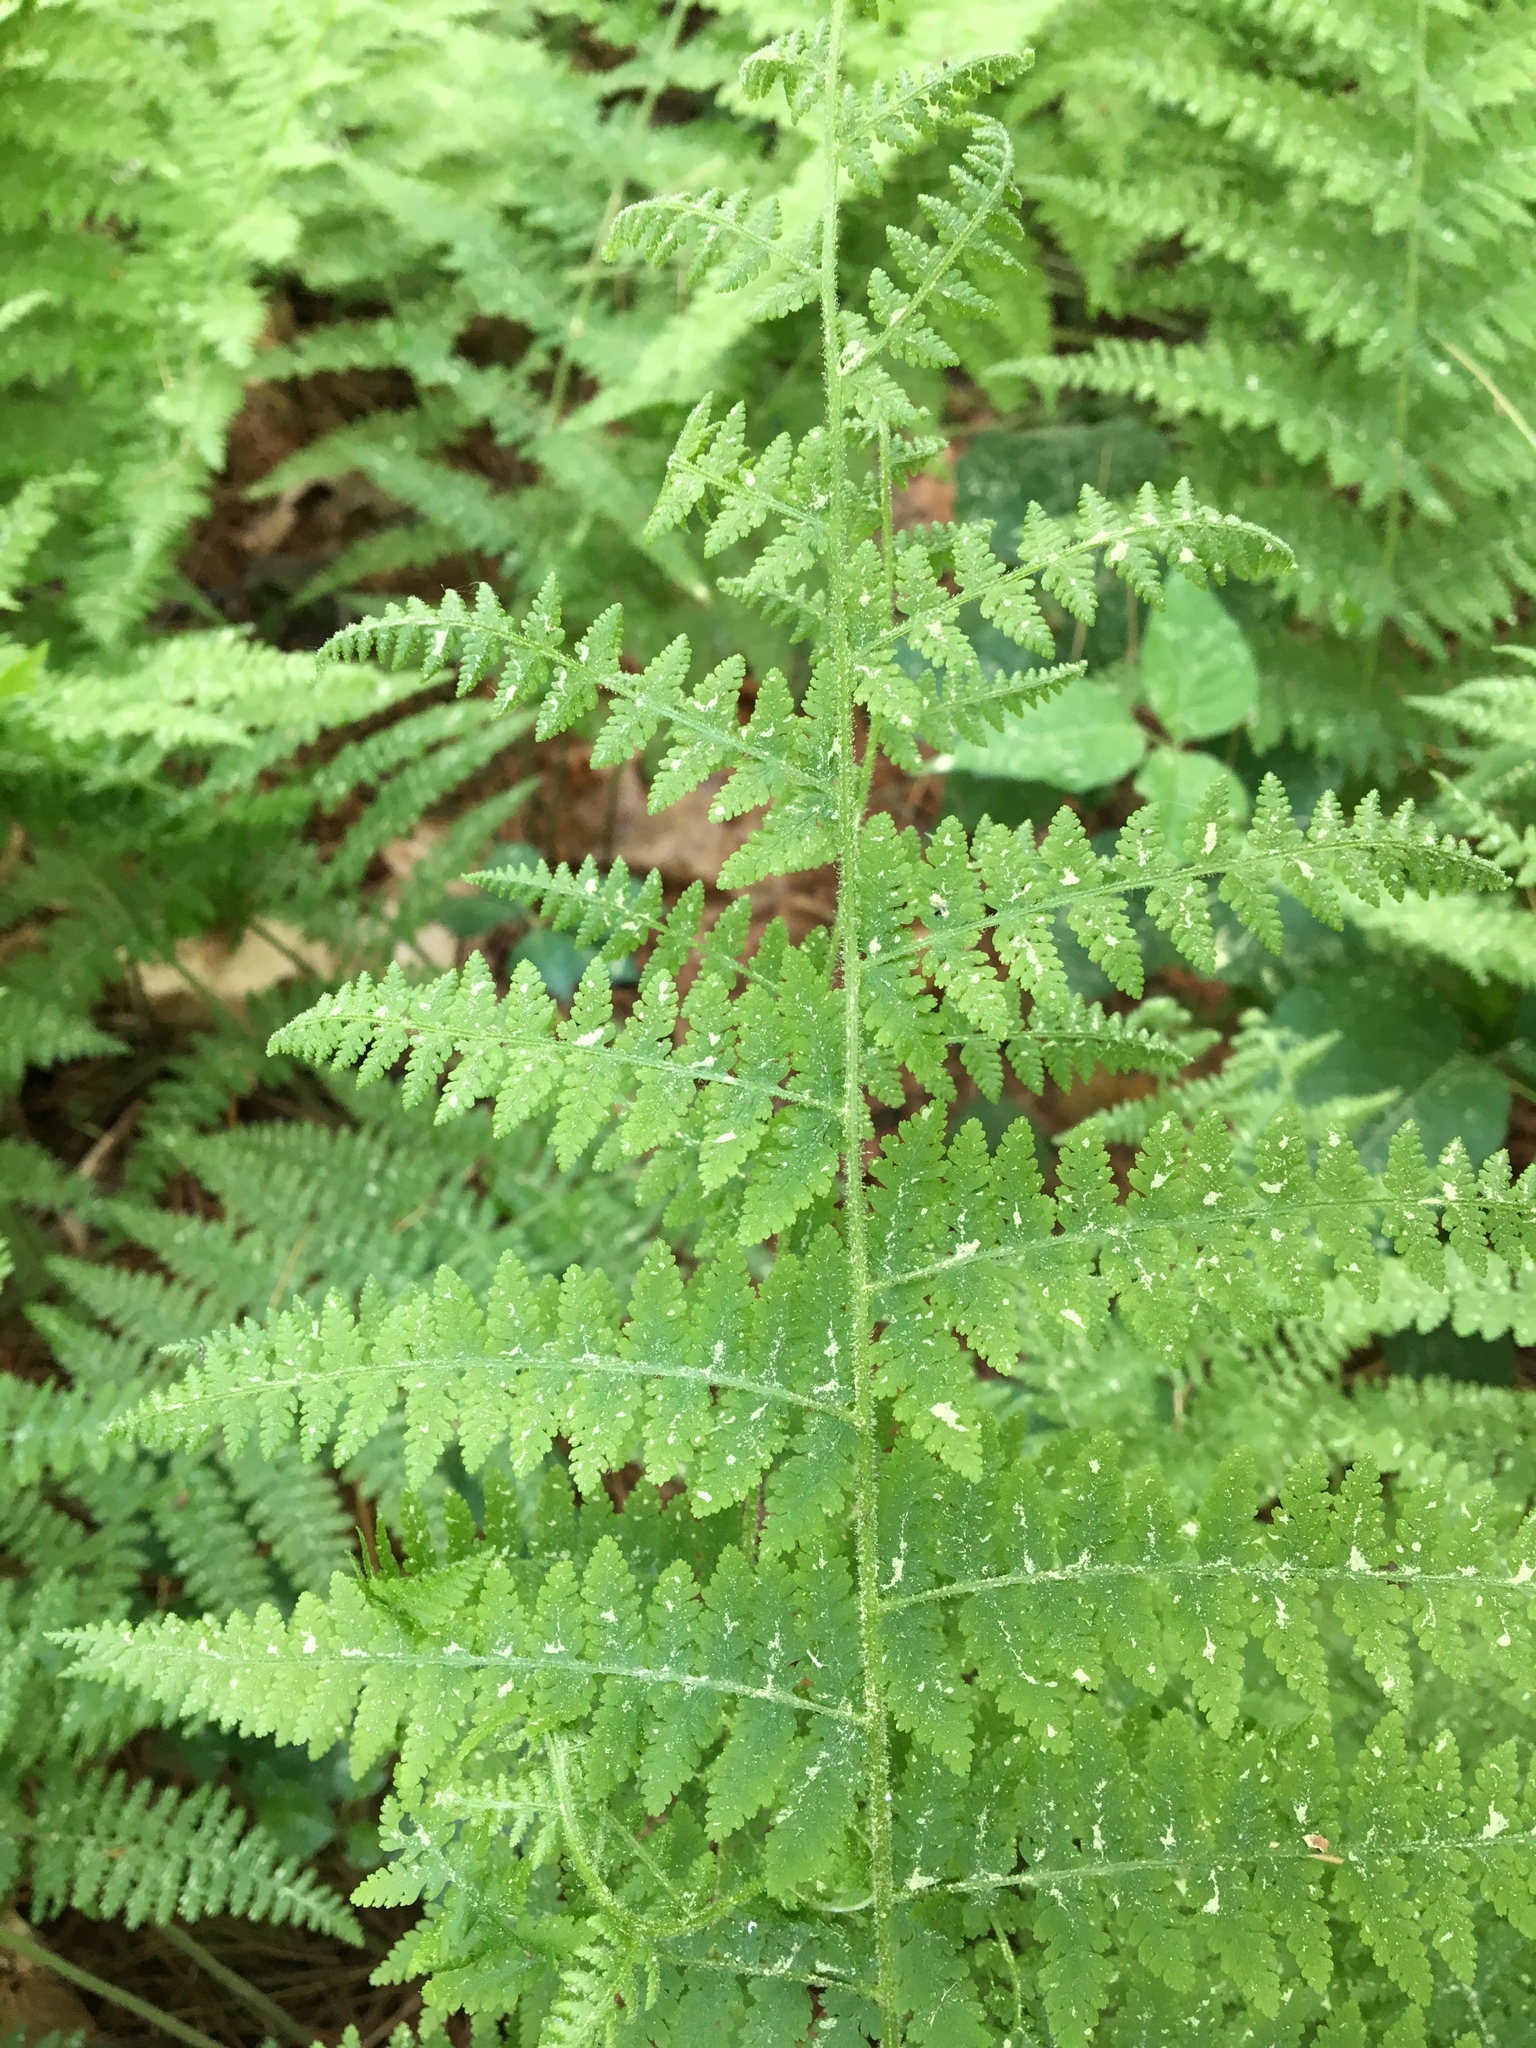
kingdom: Plantae
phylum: Tracheophyta
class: Polypodiopsida
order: Polypodiales
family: Dennstaedtiaceae
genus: Sitobolium
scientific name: Sitobolium punctilobum
